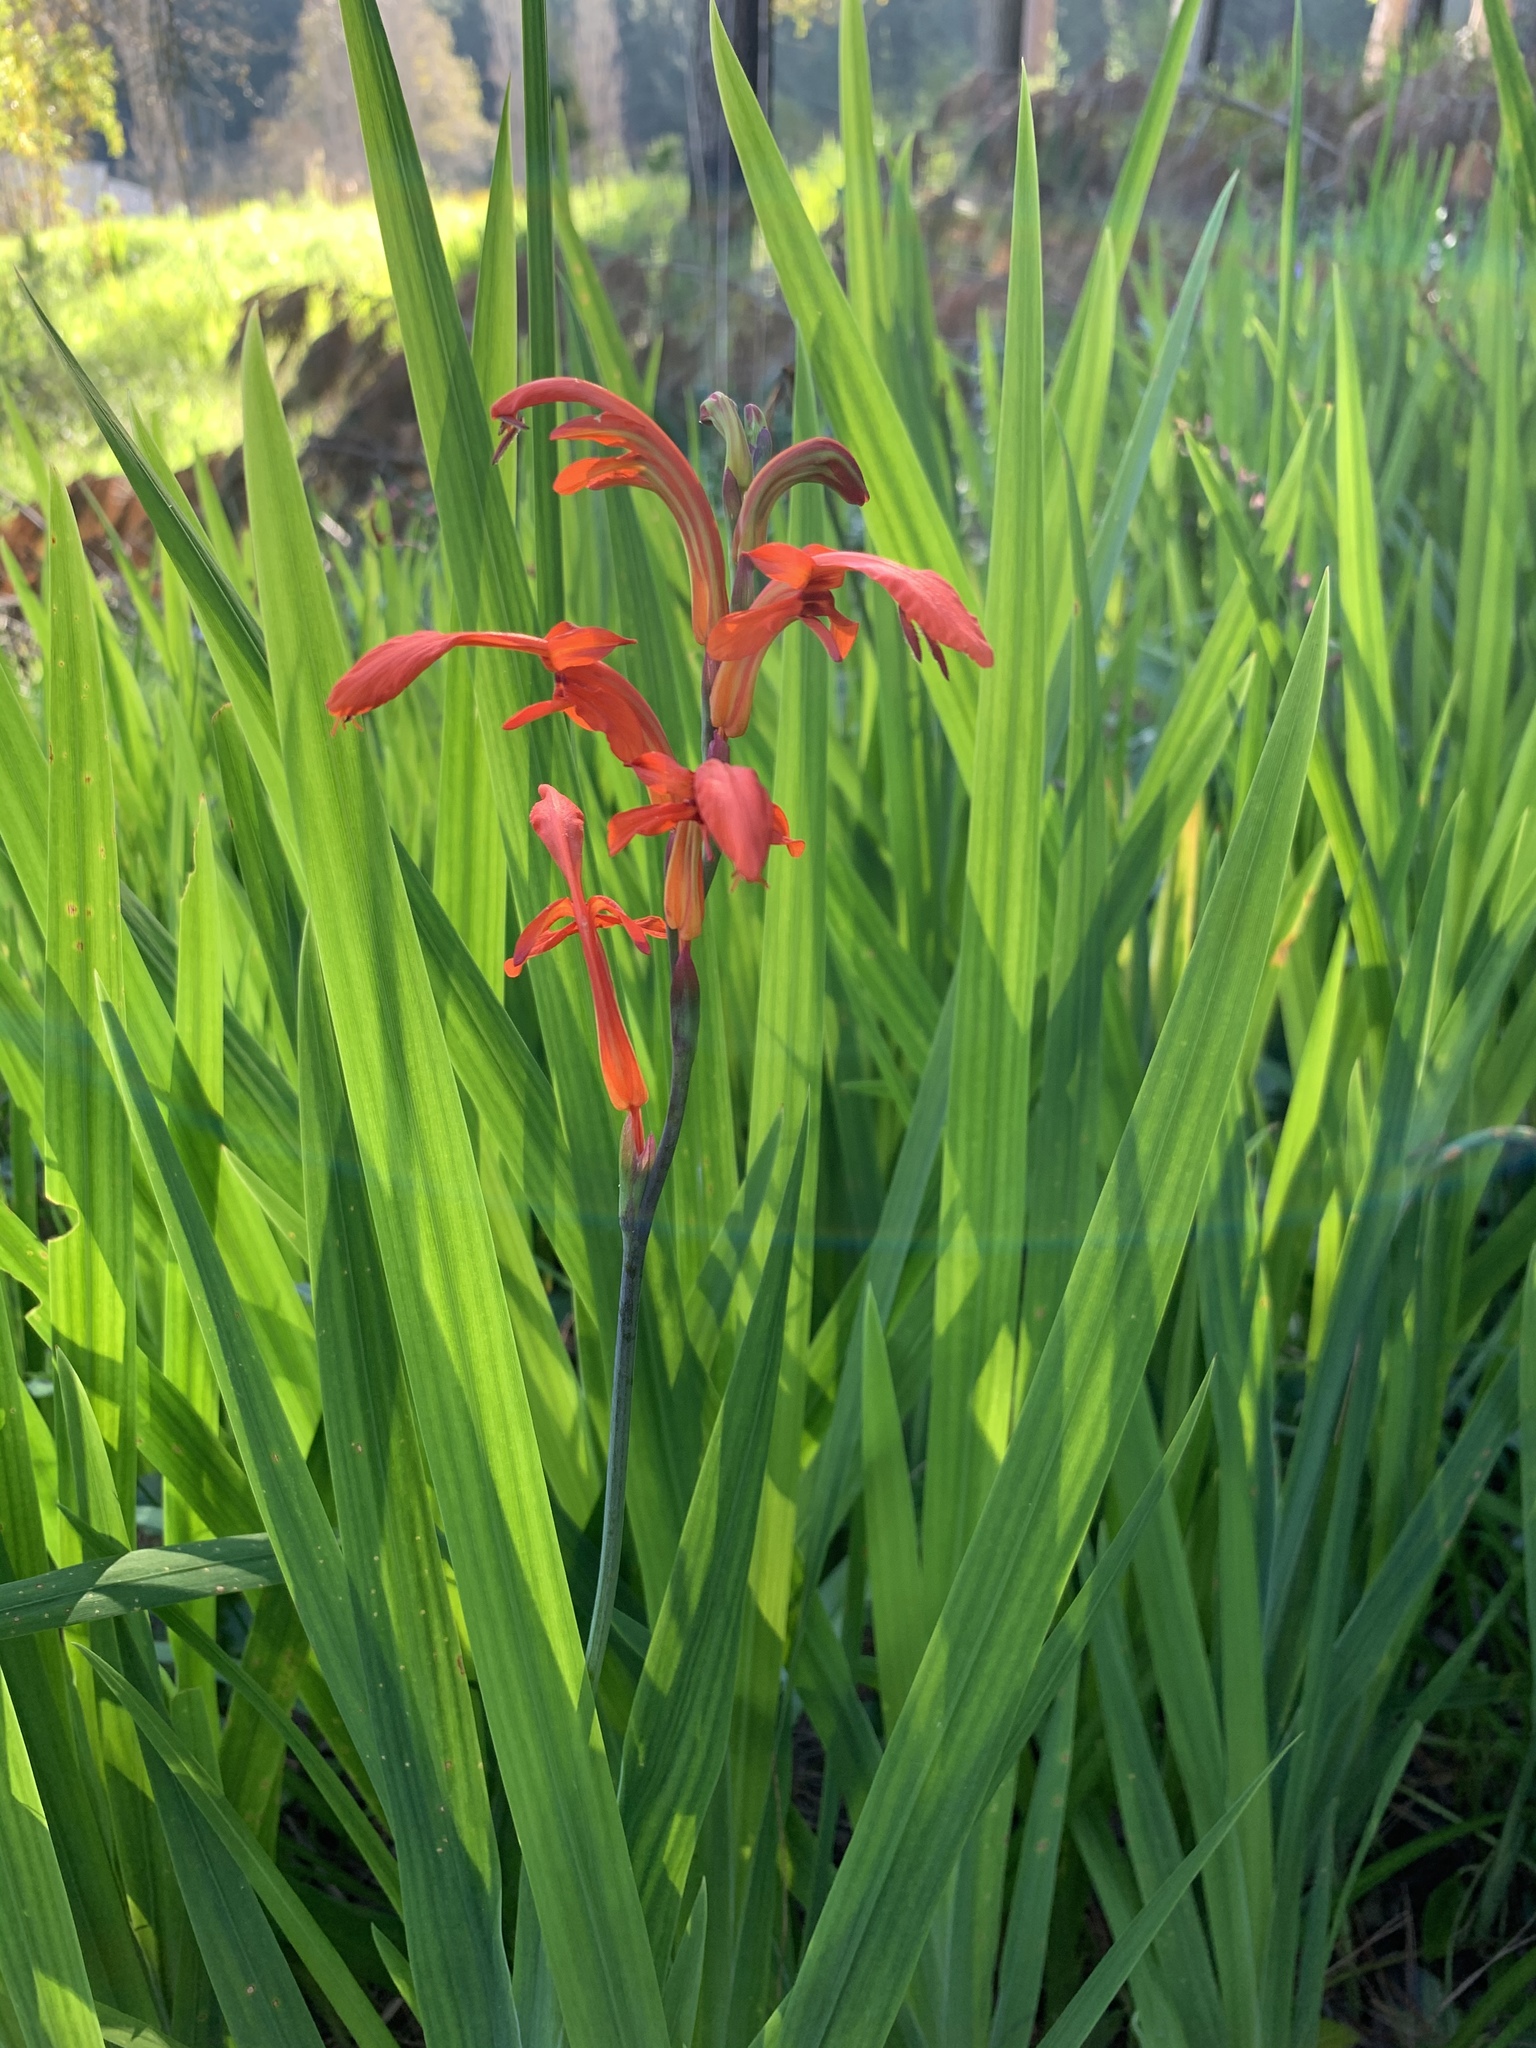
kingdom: Plantae
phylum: Tracheophyta
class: Liliopsida
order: Asparagales
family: Iridaceae
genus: Chasmanthe
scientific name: Chasmanthe aethiopica
